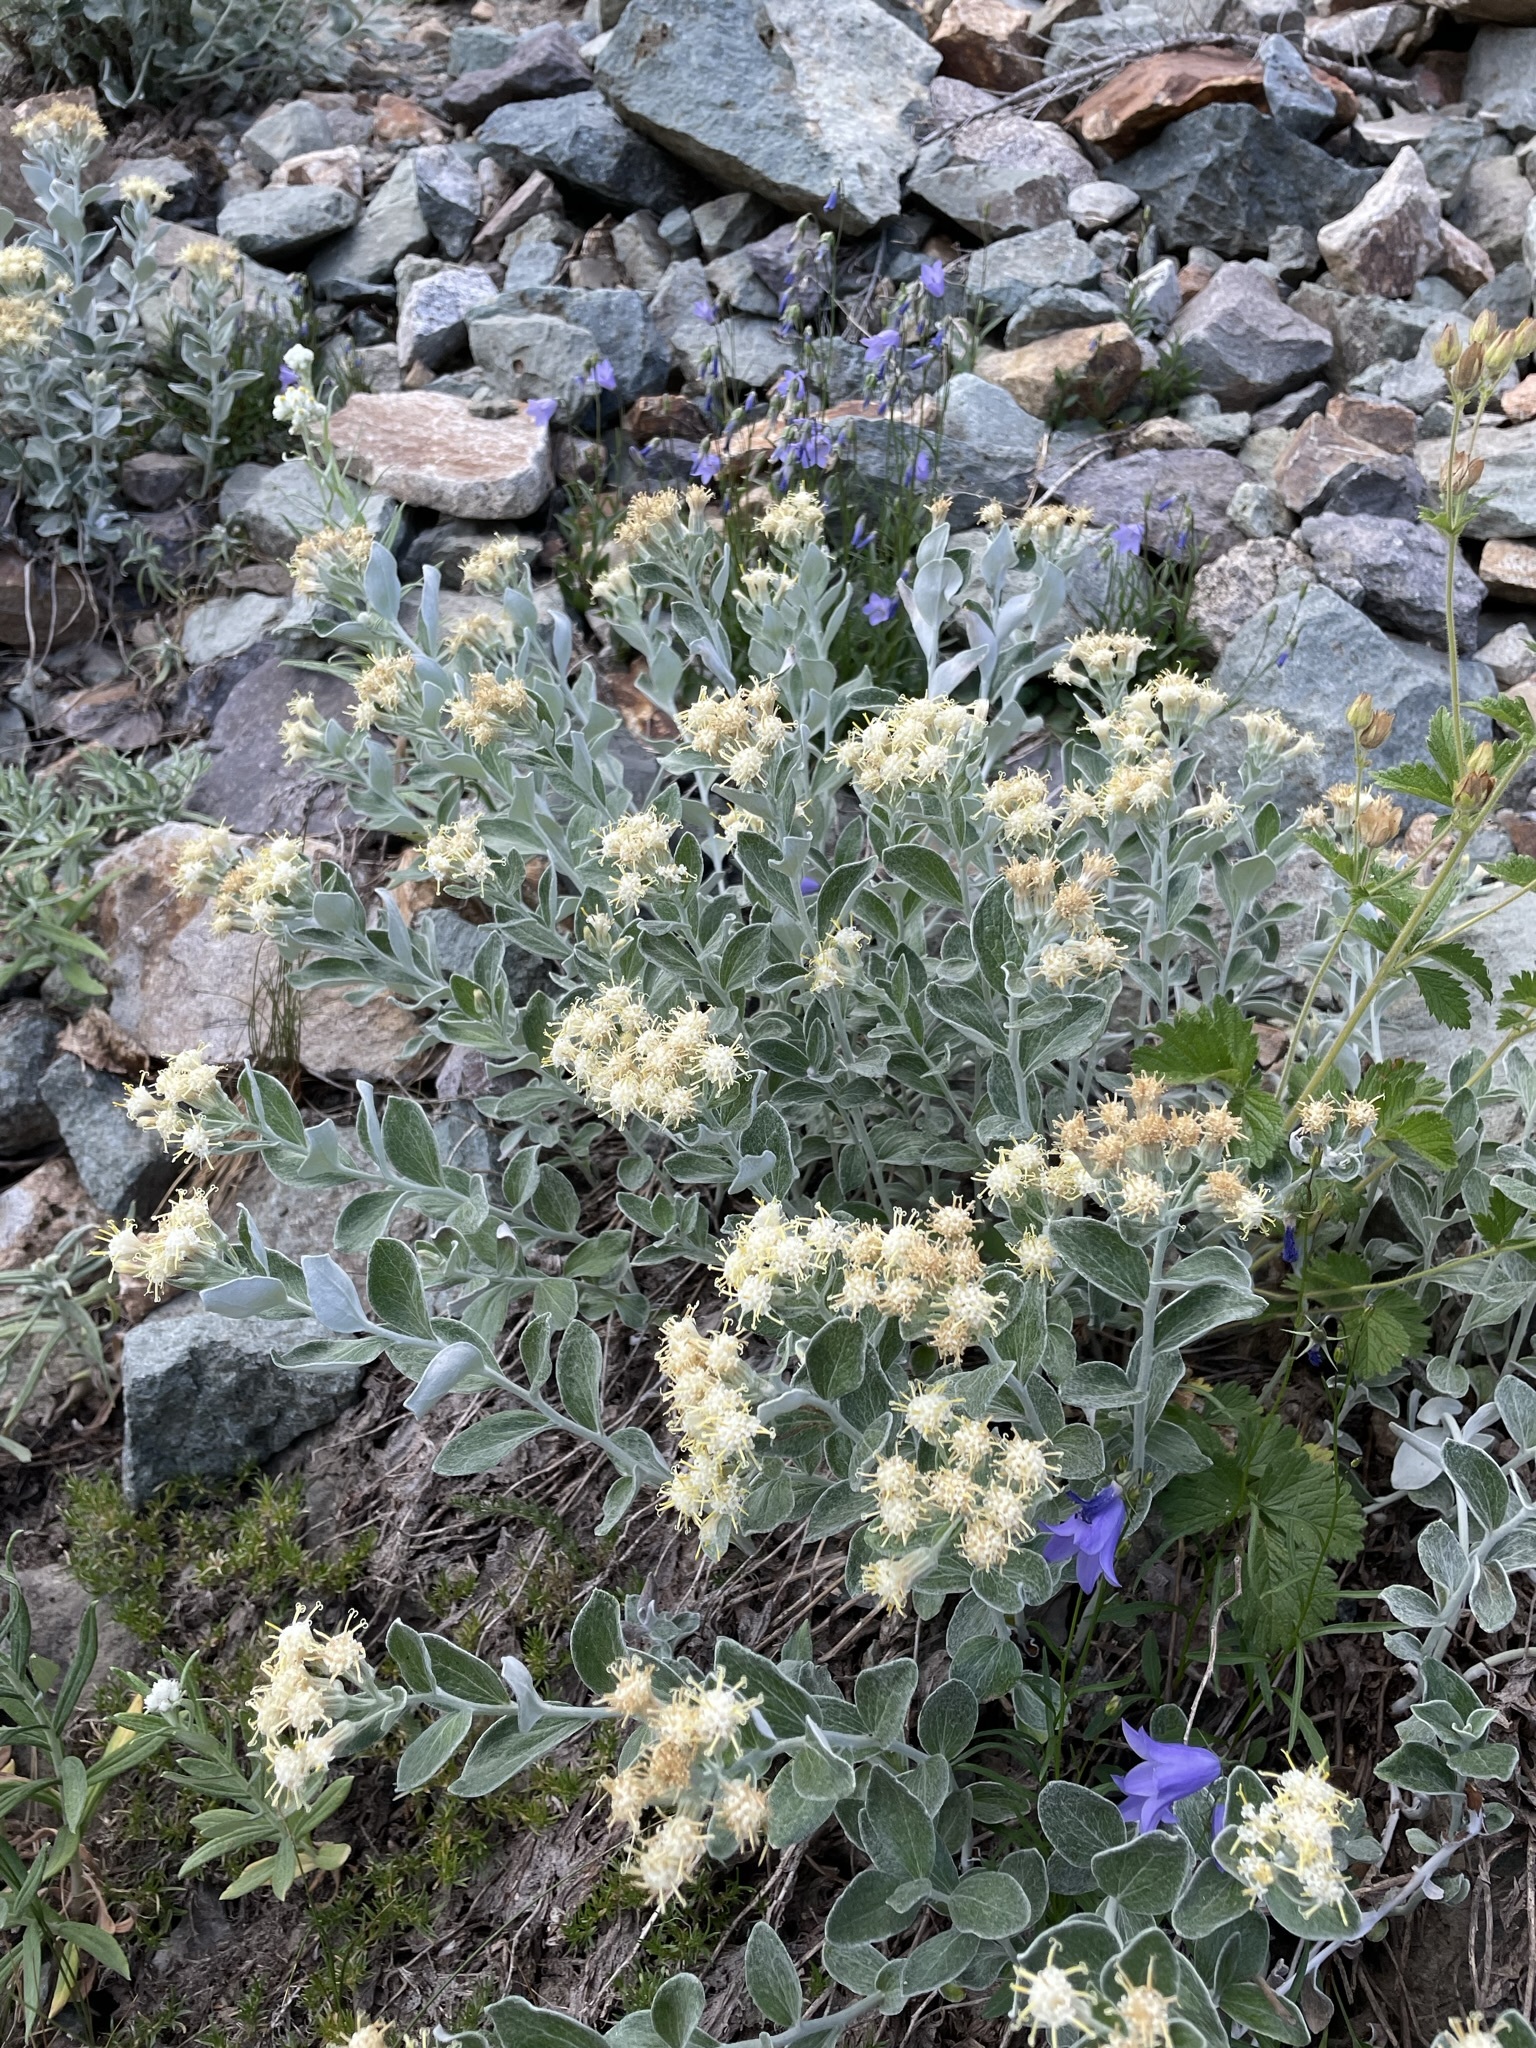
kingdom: Plantae
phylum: Tracheophyta
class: Magnoliopsida
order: Asterales
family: Asteraceae
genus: Luina
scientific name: Luina hypoleuca
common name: Little-leaved luina
